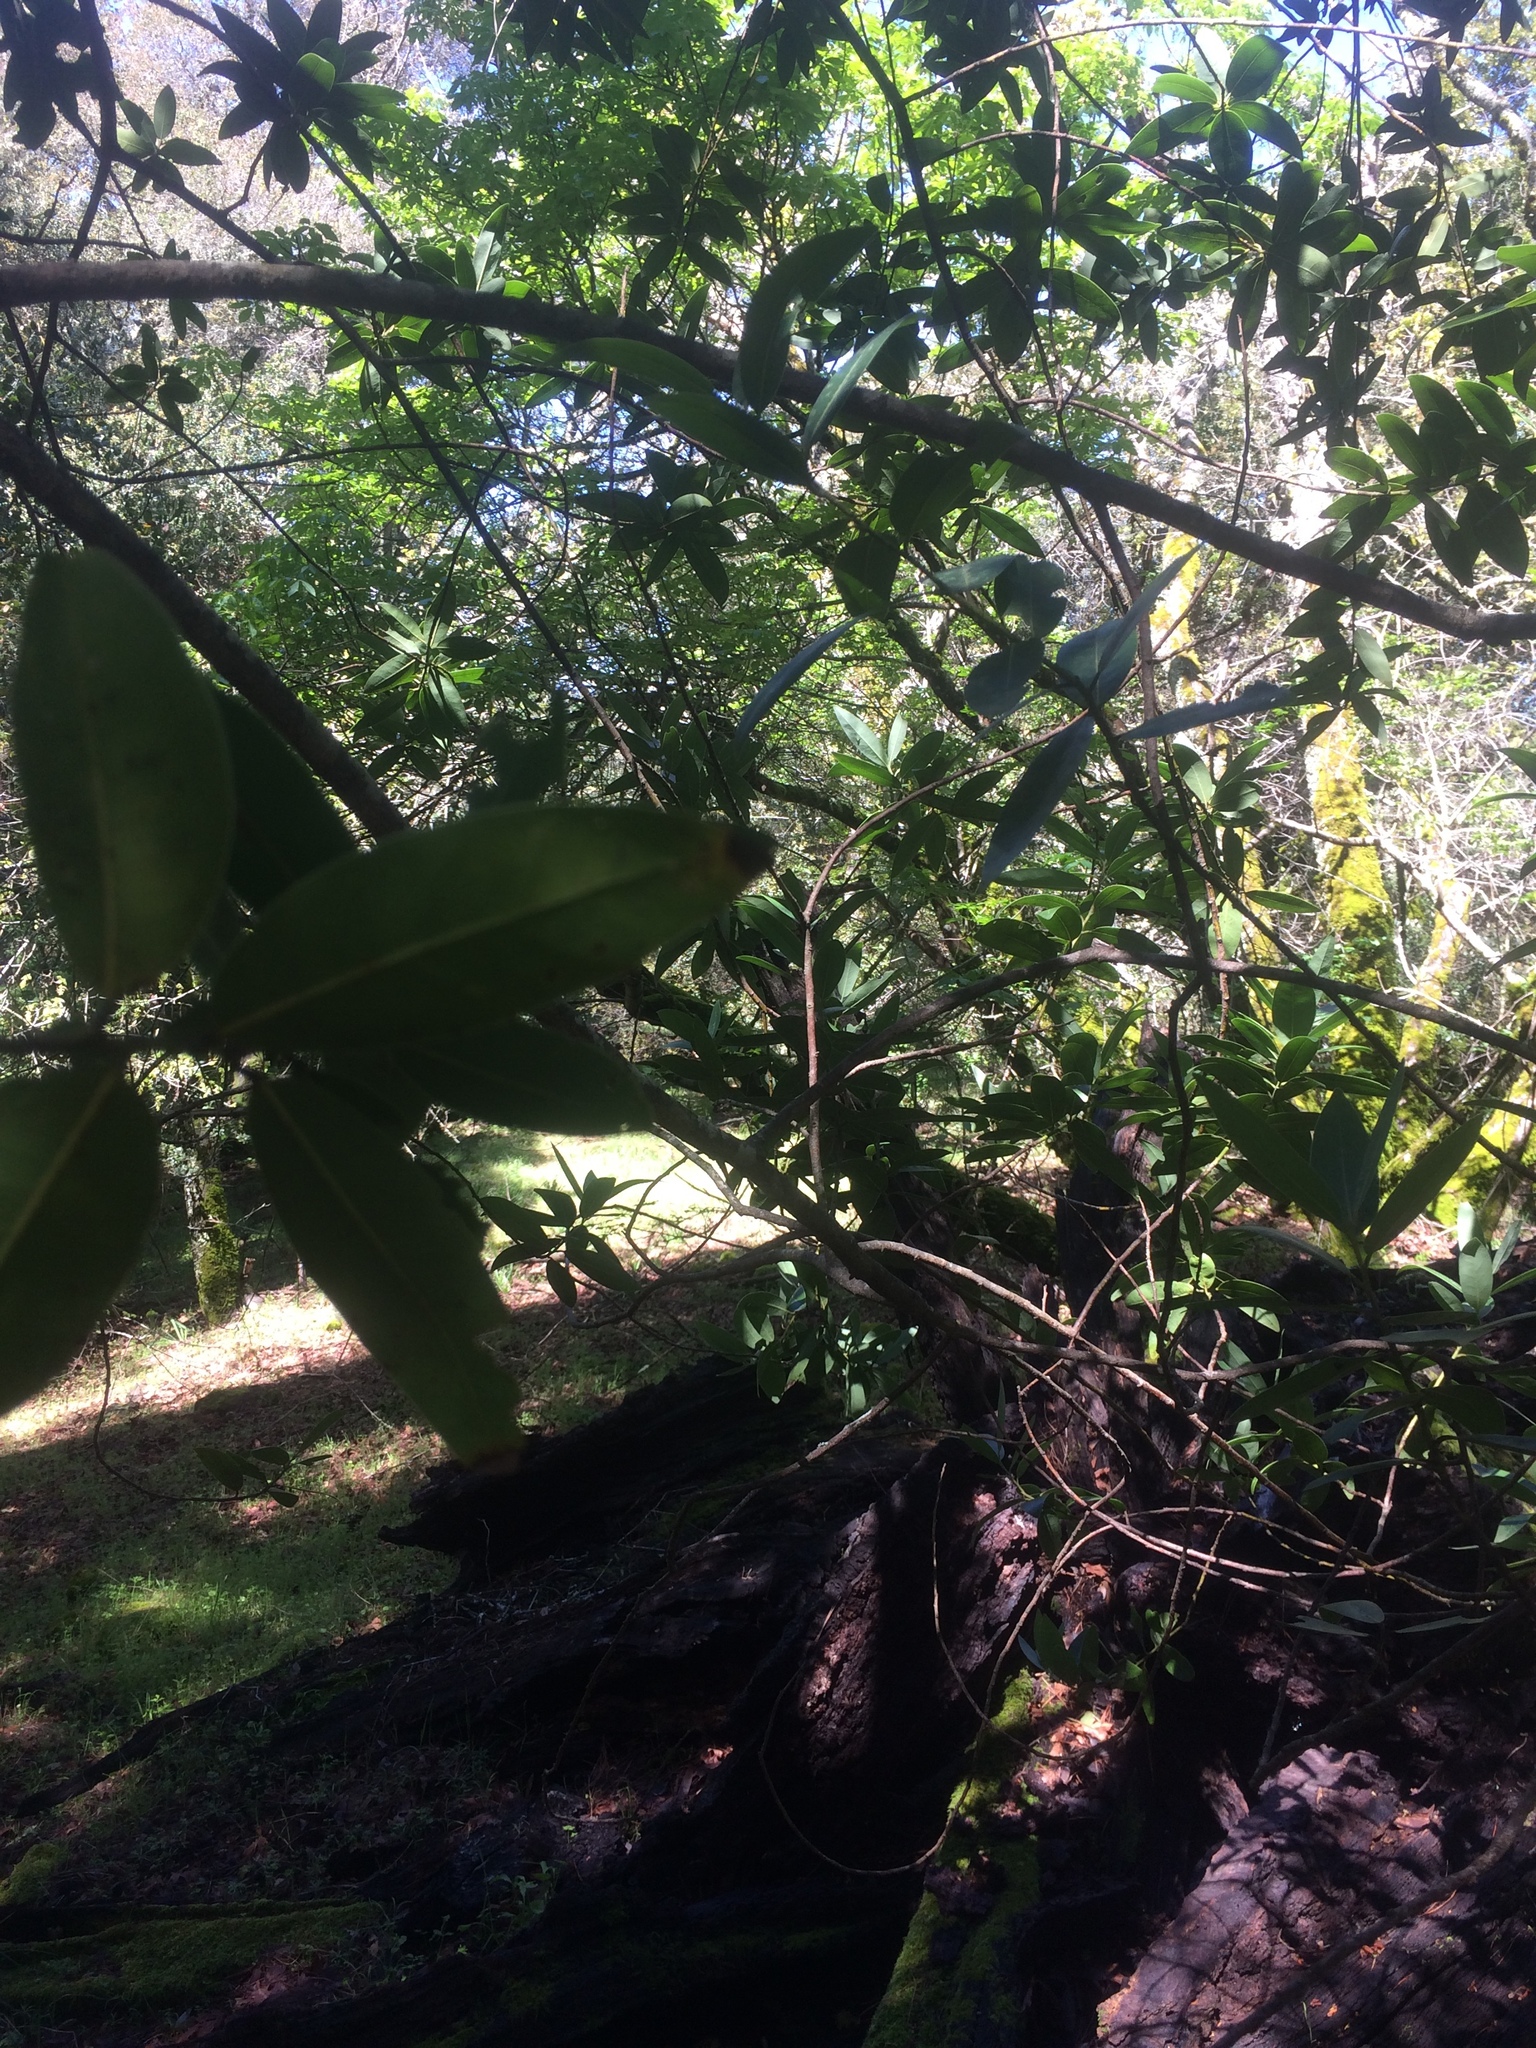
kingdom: Plantae
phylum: Tracheophyta
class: Magnoliopsida
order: Laurales
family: Lauraceae
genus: Umbellularia
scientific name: Umbellularia californica
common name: California bay
